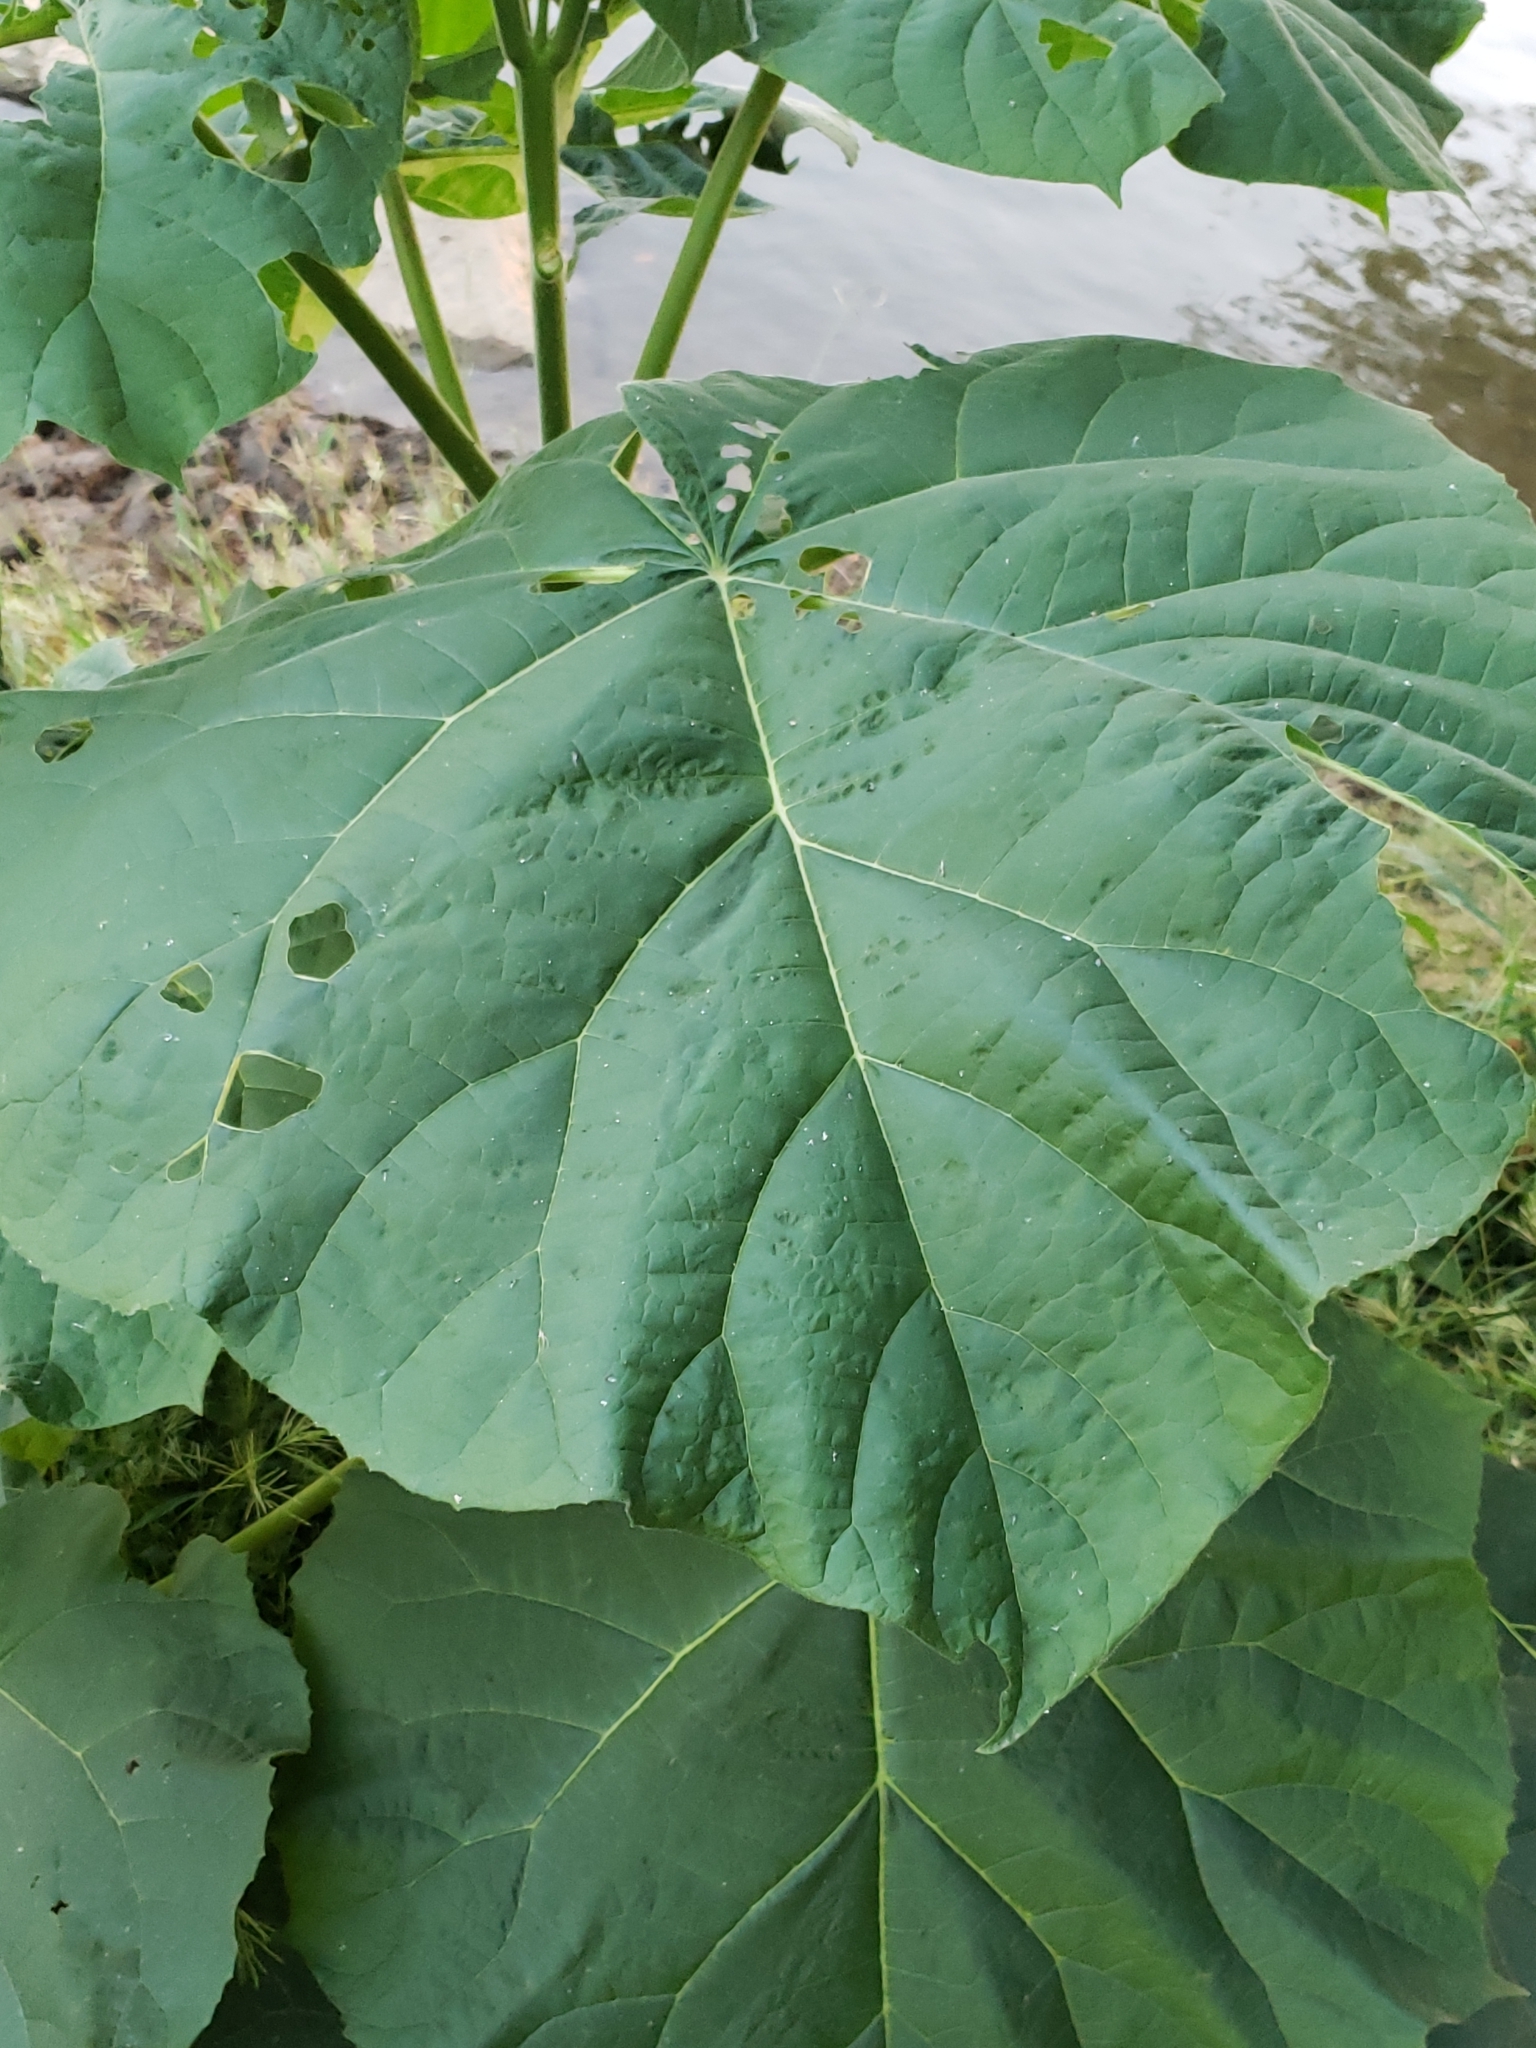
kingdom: Plantae
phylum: Tracheophyta
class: Magnoliopsida
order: Lamiales
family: Paulowniaceae
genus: Paulownia
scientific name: Paulownia tomentosa
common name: Foxglove-tree
